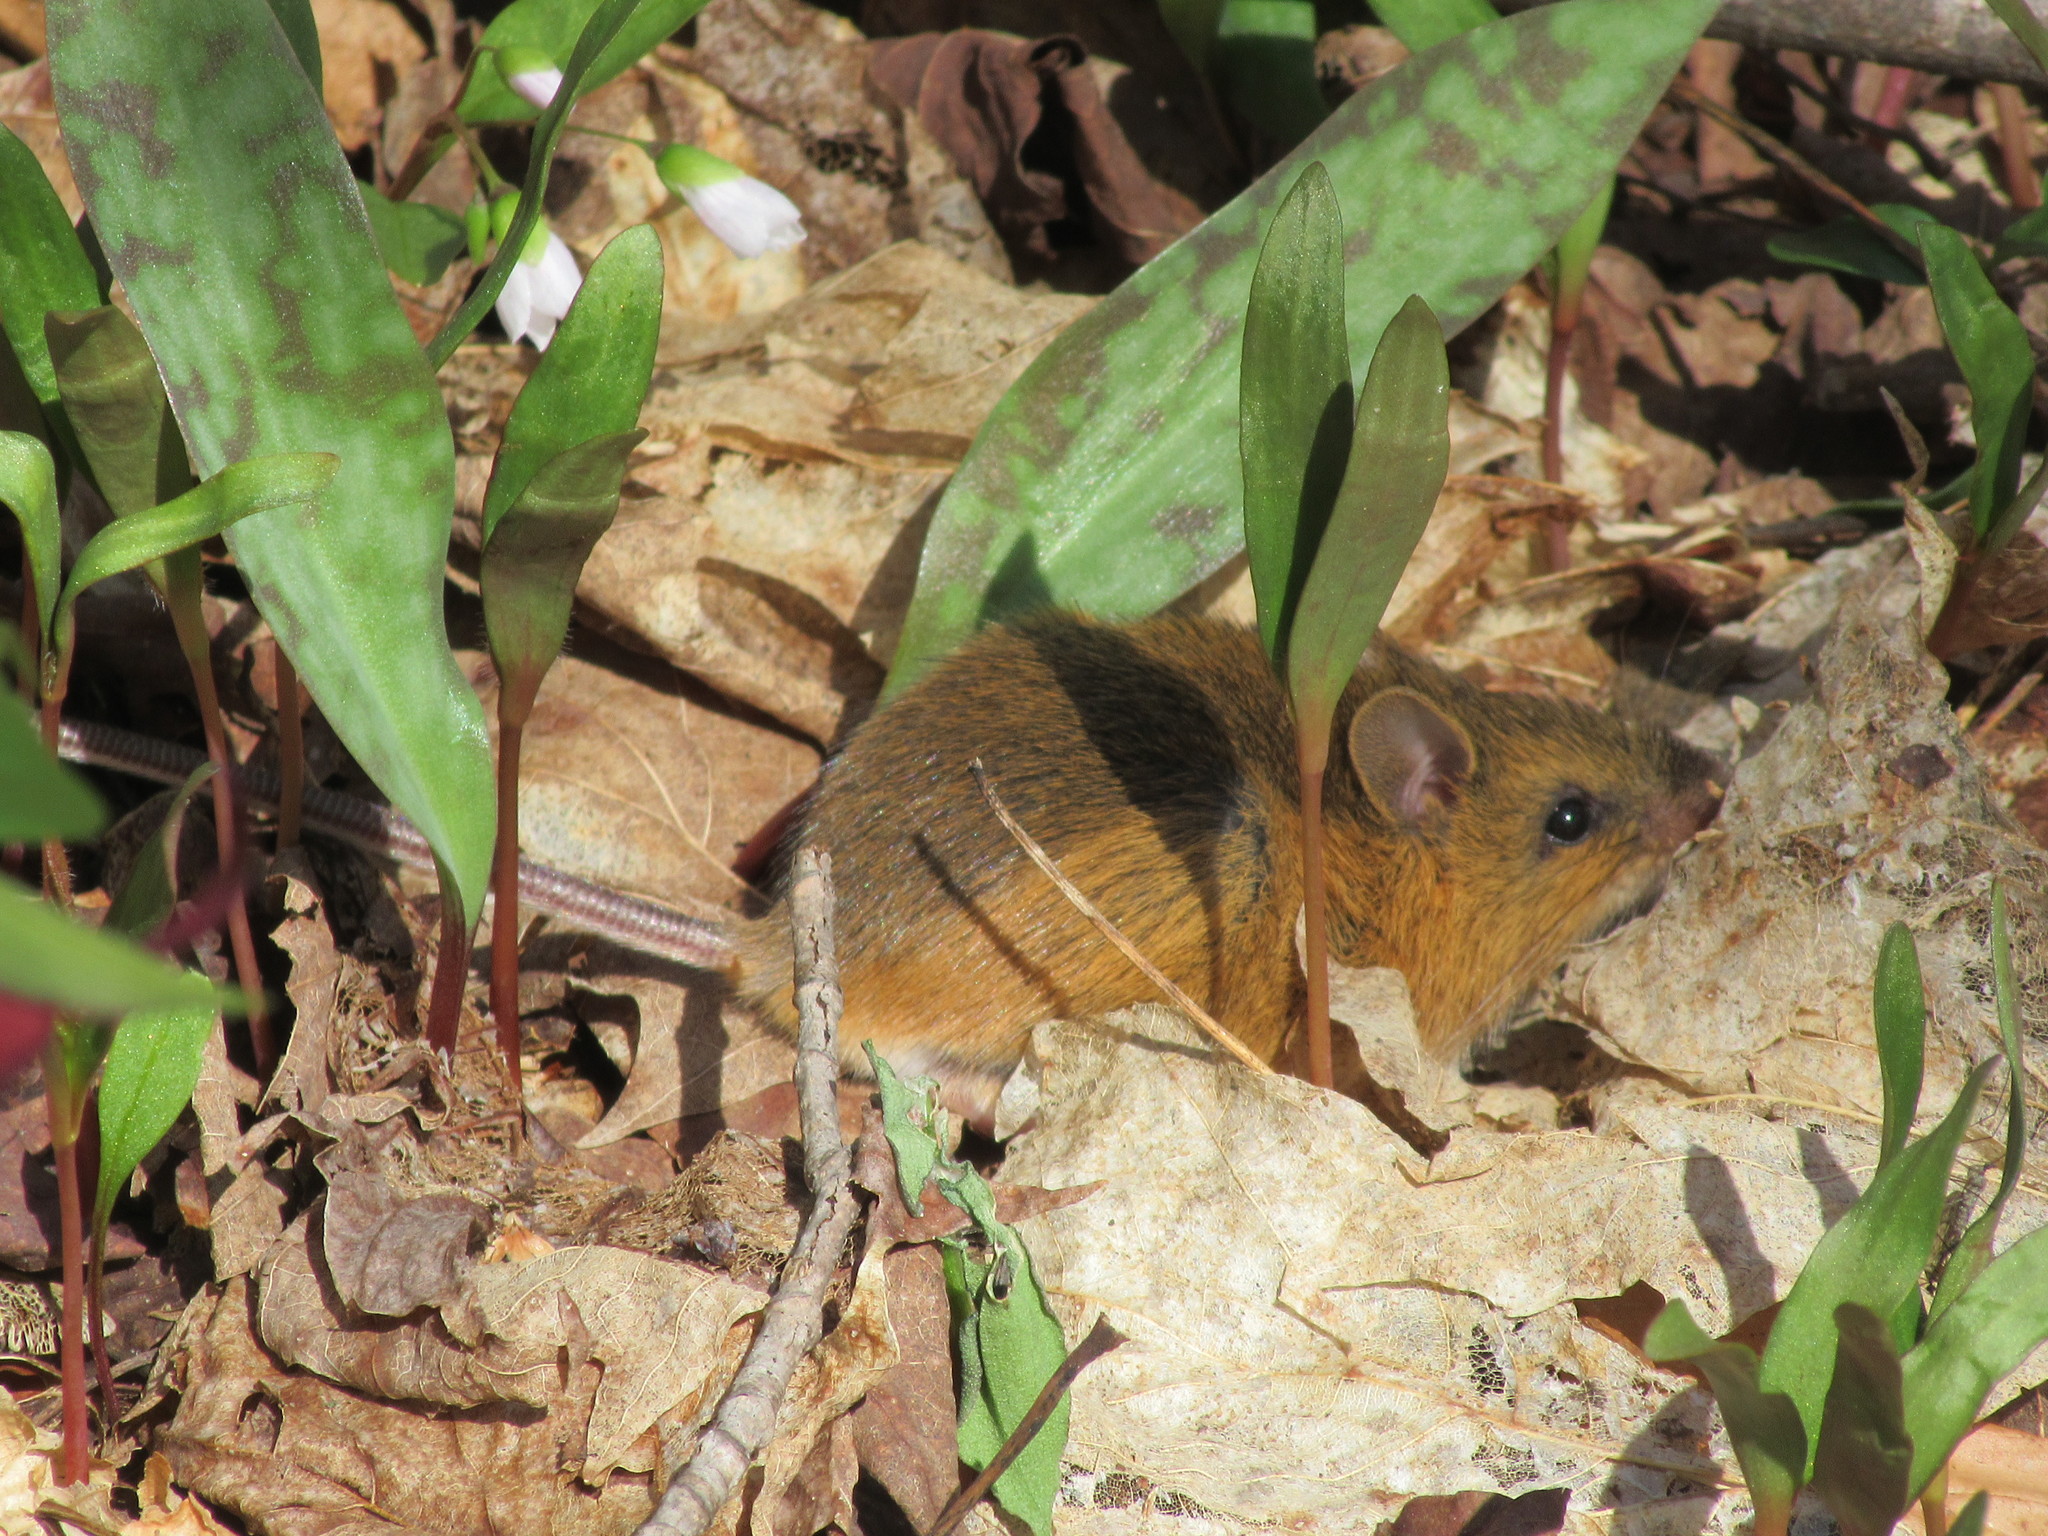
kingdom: Animalia
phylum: Chordata
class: Mammalia
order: Rodentia
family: Dipodidae
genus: Napaeozapus
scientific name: Napaeozapus insignis
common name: Woodland jumping mouse
